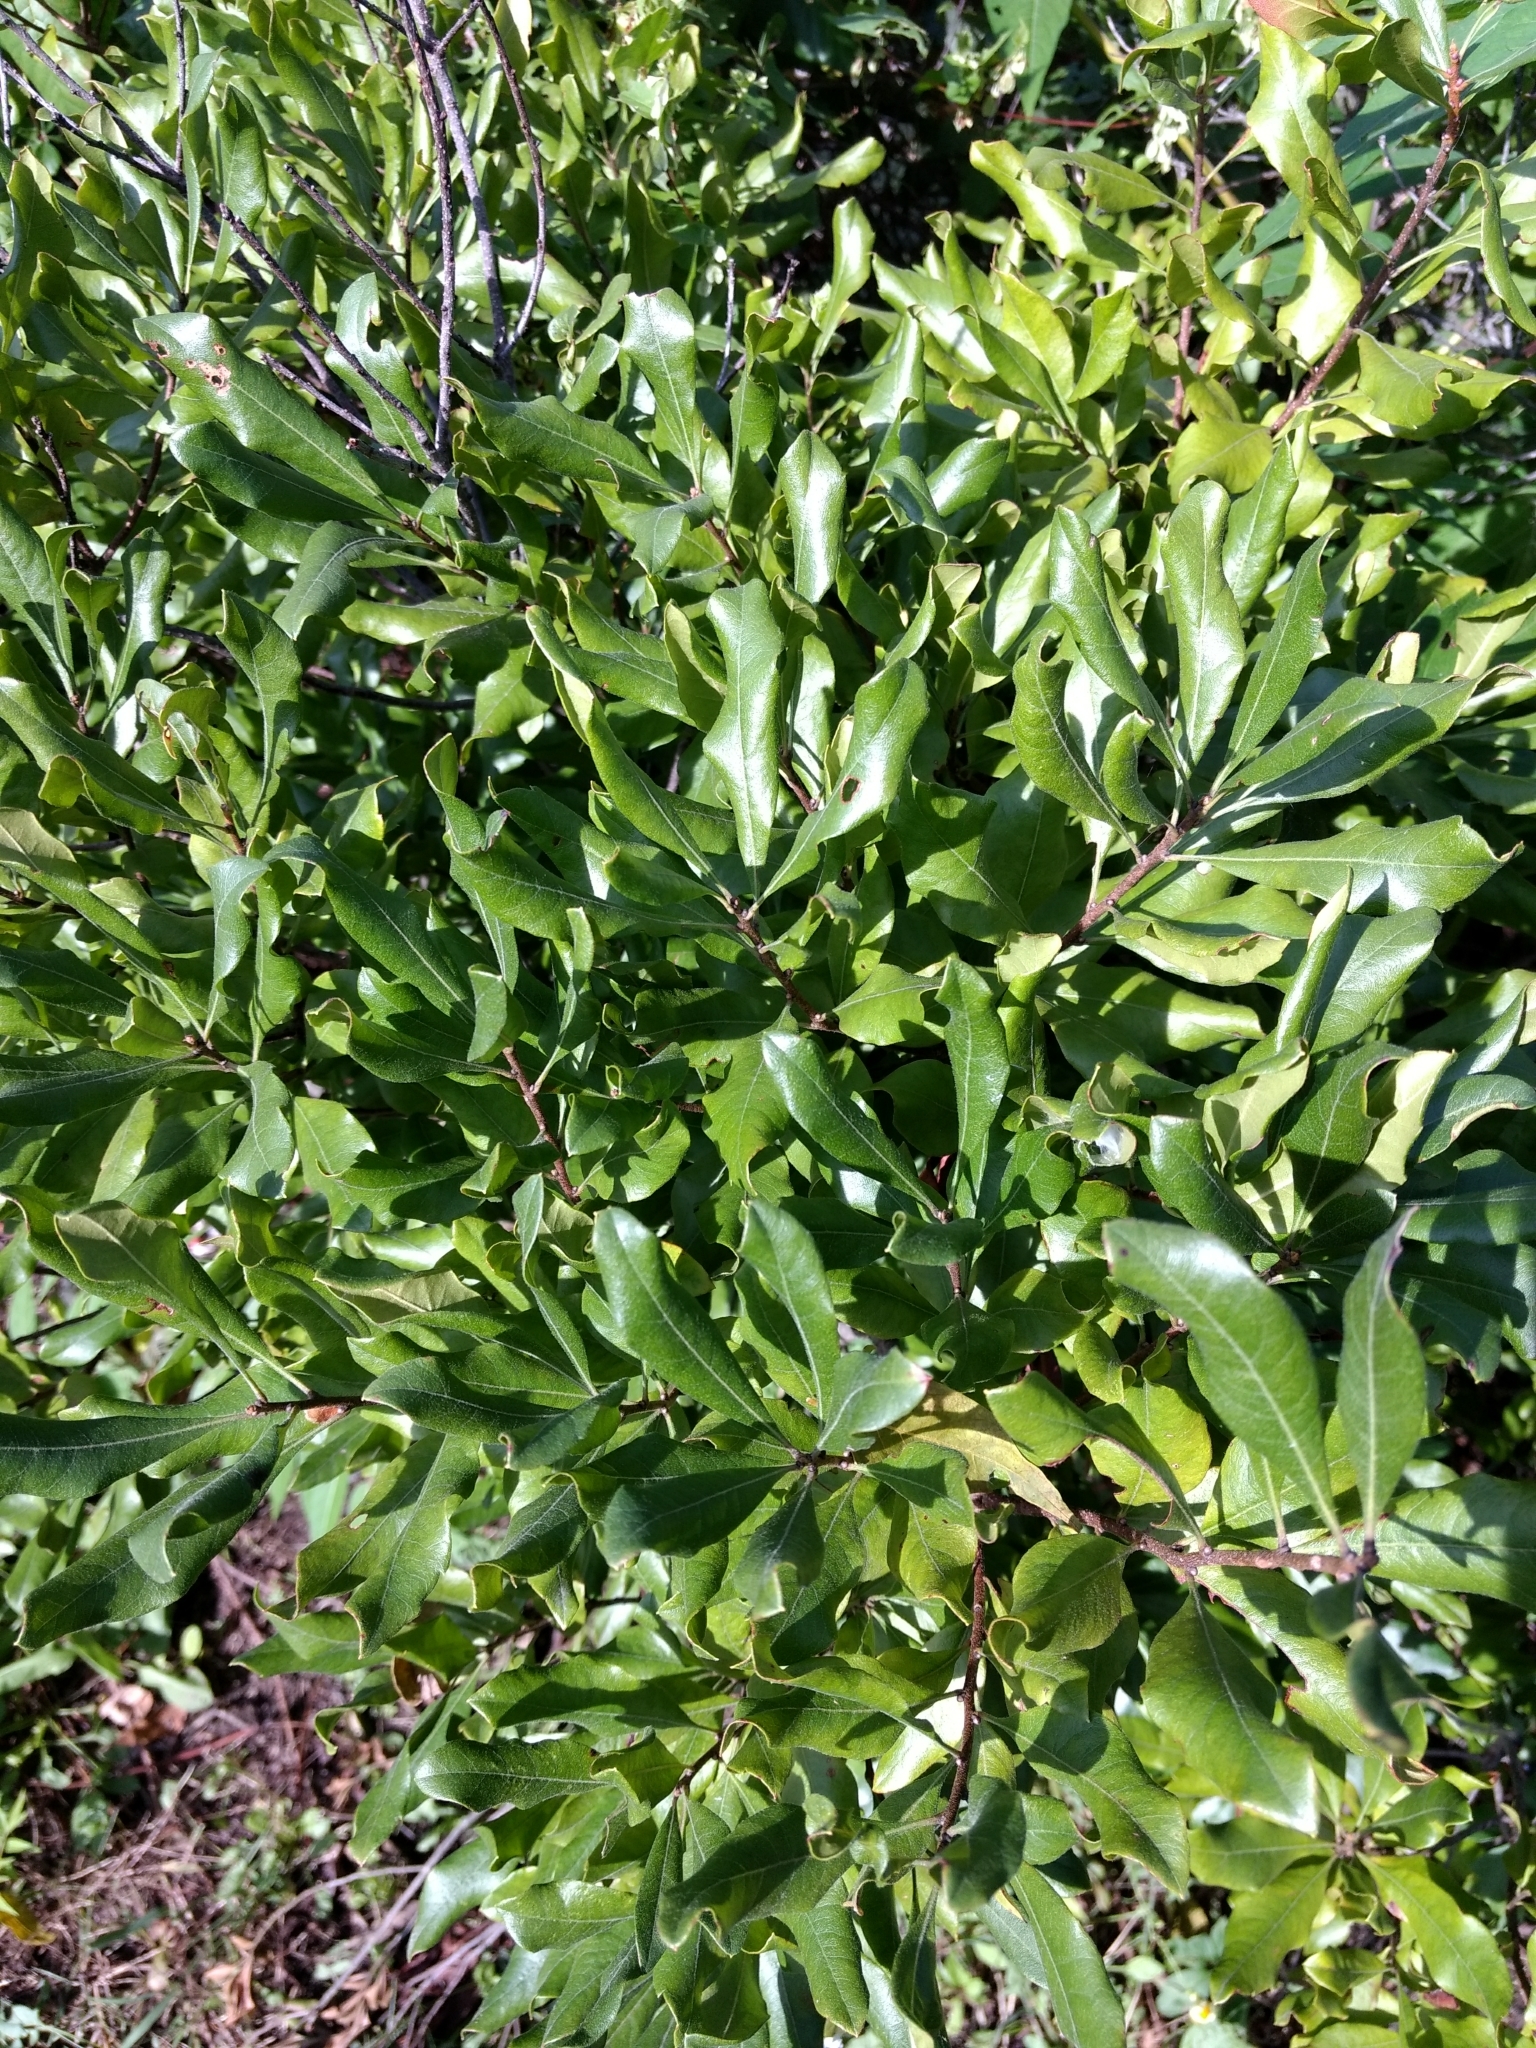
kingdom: Plantae
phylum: Tracheophyta
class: Magnoliopsida
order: Fagales
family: Myricaceae
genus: Morella
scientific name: Morella pensylvanica
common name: Northern bayberry
